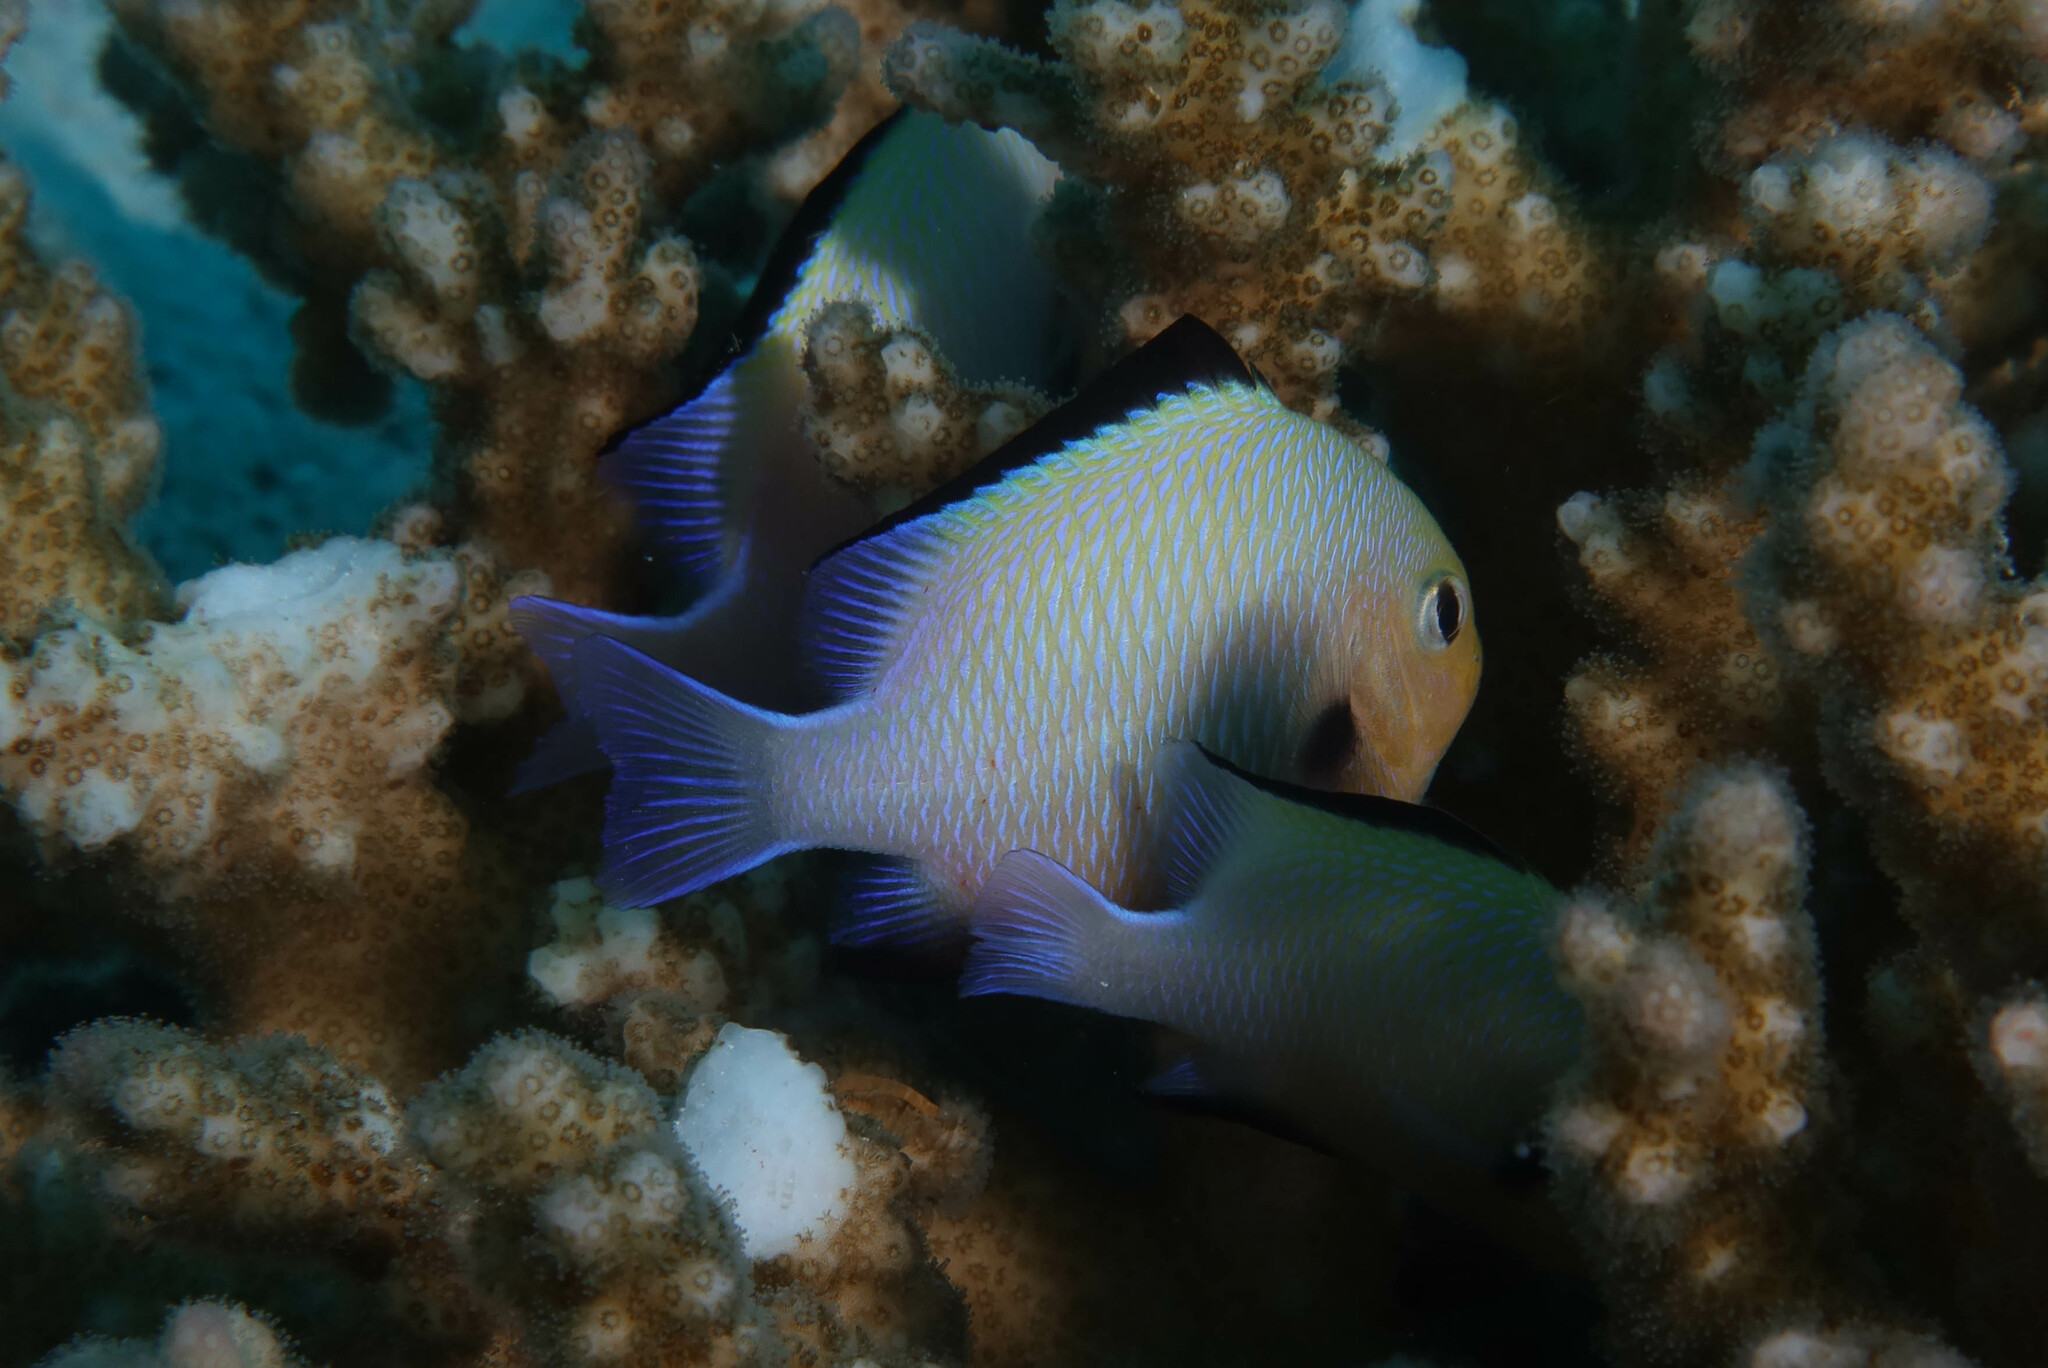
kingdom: Animalia
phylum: Chordata
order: Perciformes
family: Pomacentridae
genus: Dascyllus
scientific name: Dascyllus marginatus
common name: Red sea dascyllus
